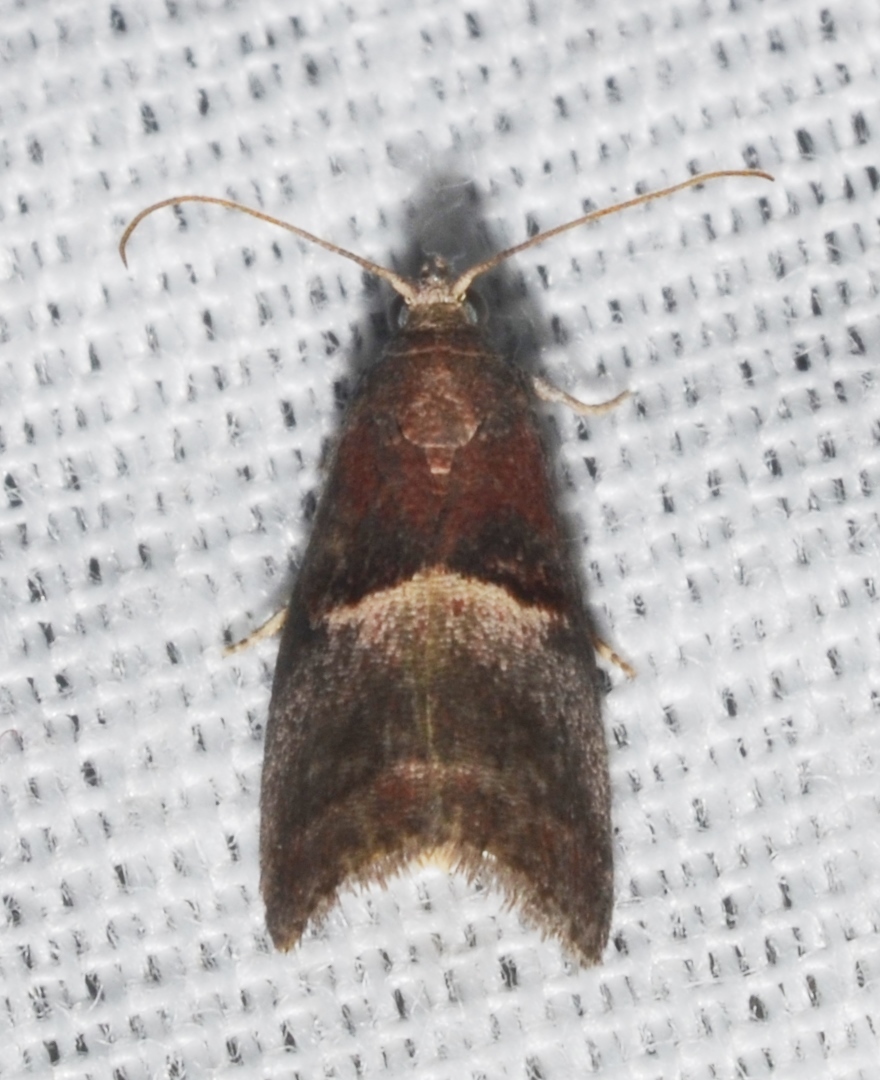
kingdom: Animalia
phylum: Arthropoda
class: Insecta
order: Lepidoptera
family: Pyralidae
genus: Acrobasis
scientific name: Acrobasis exsulella
